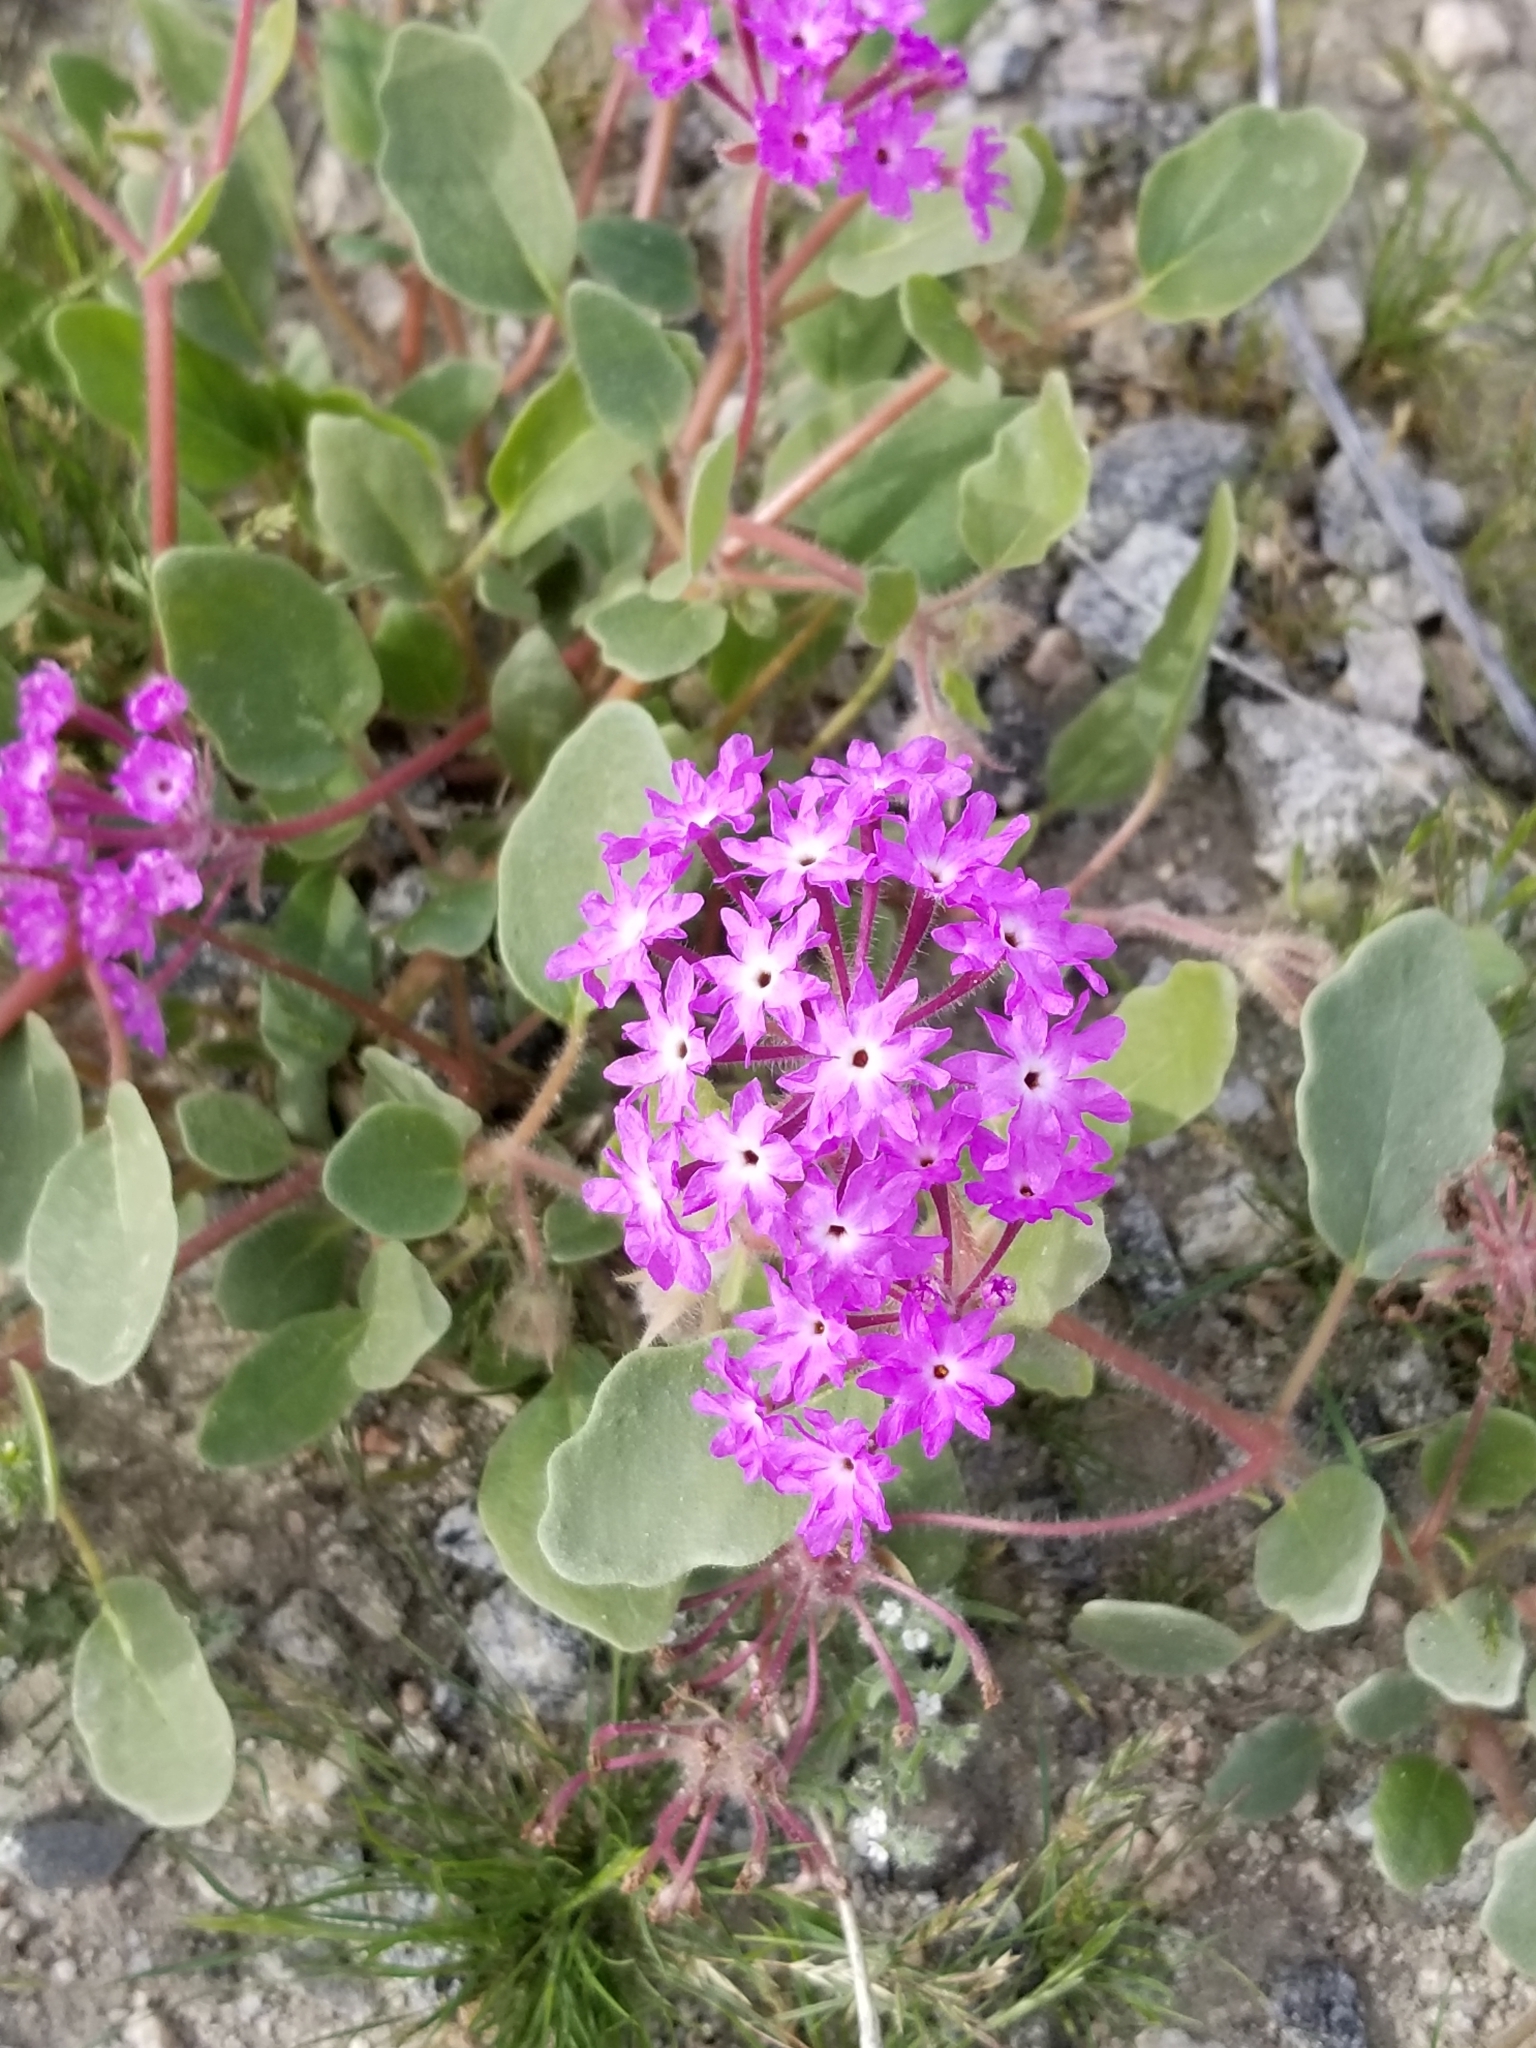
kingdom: Plantae
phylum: Tracheophyta
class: Magnoliopsida
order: Caryophyllales
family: Nyctaginaceae
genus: Abronia
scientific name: Abronia villosa
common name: Desert sand-verbena
